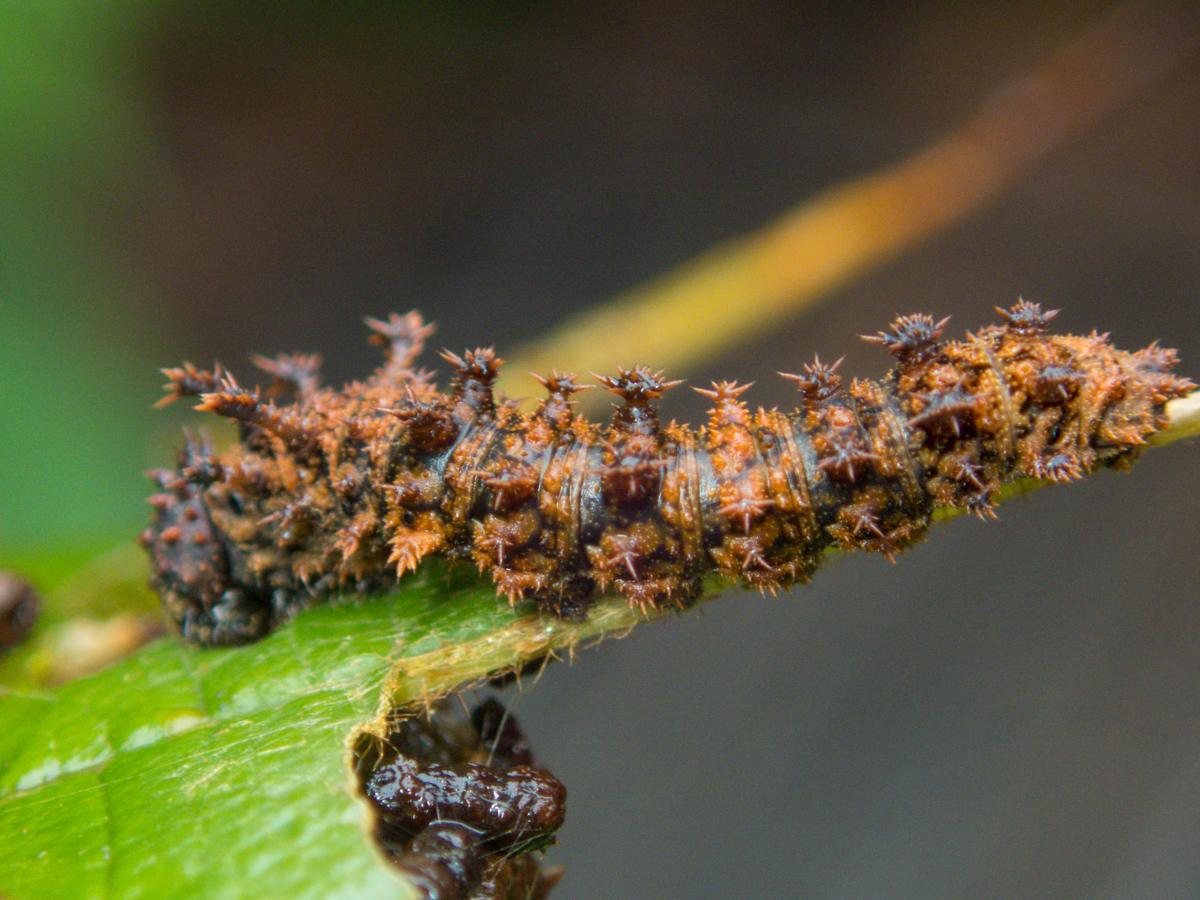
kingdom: Animalia
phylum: Arthropoda
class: Insecta
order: Lepidoptera
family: Nymphalidae
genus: Limenitis
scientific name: Limenitis Moduza procris
